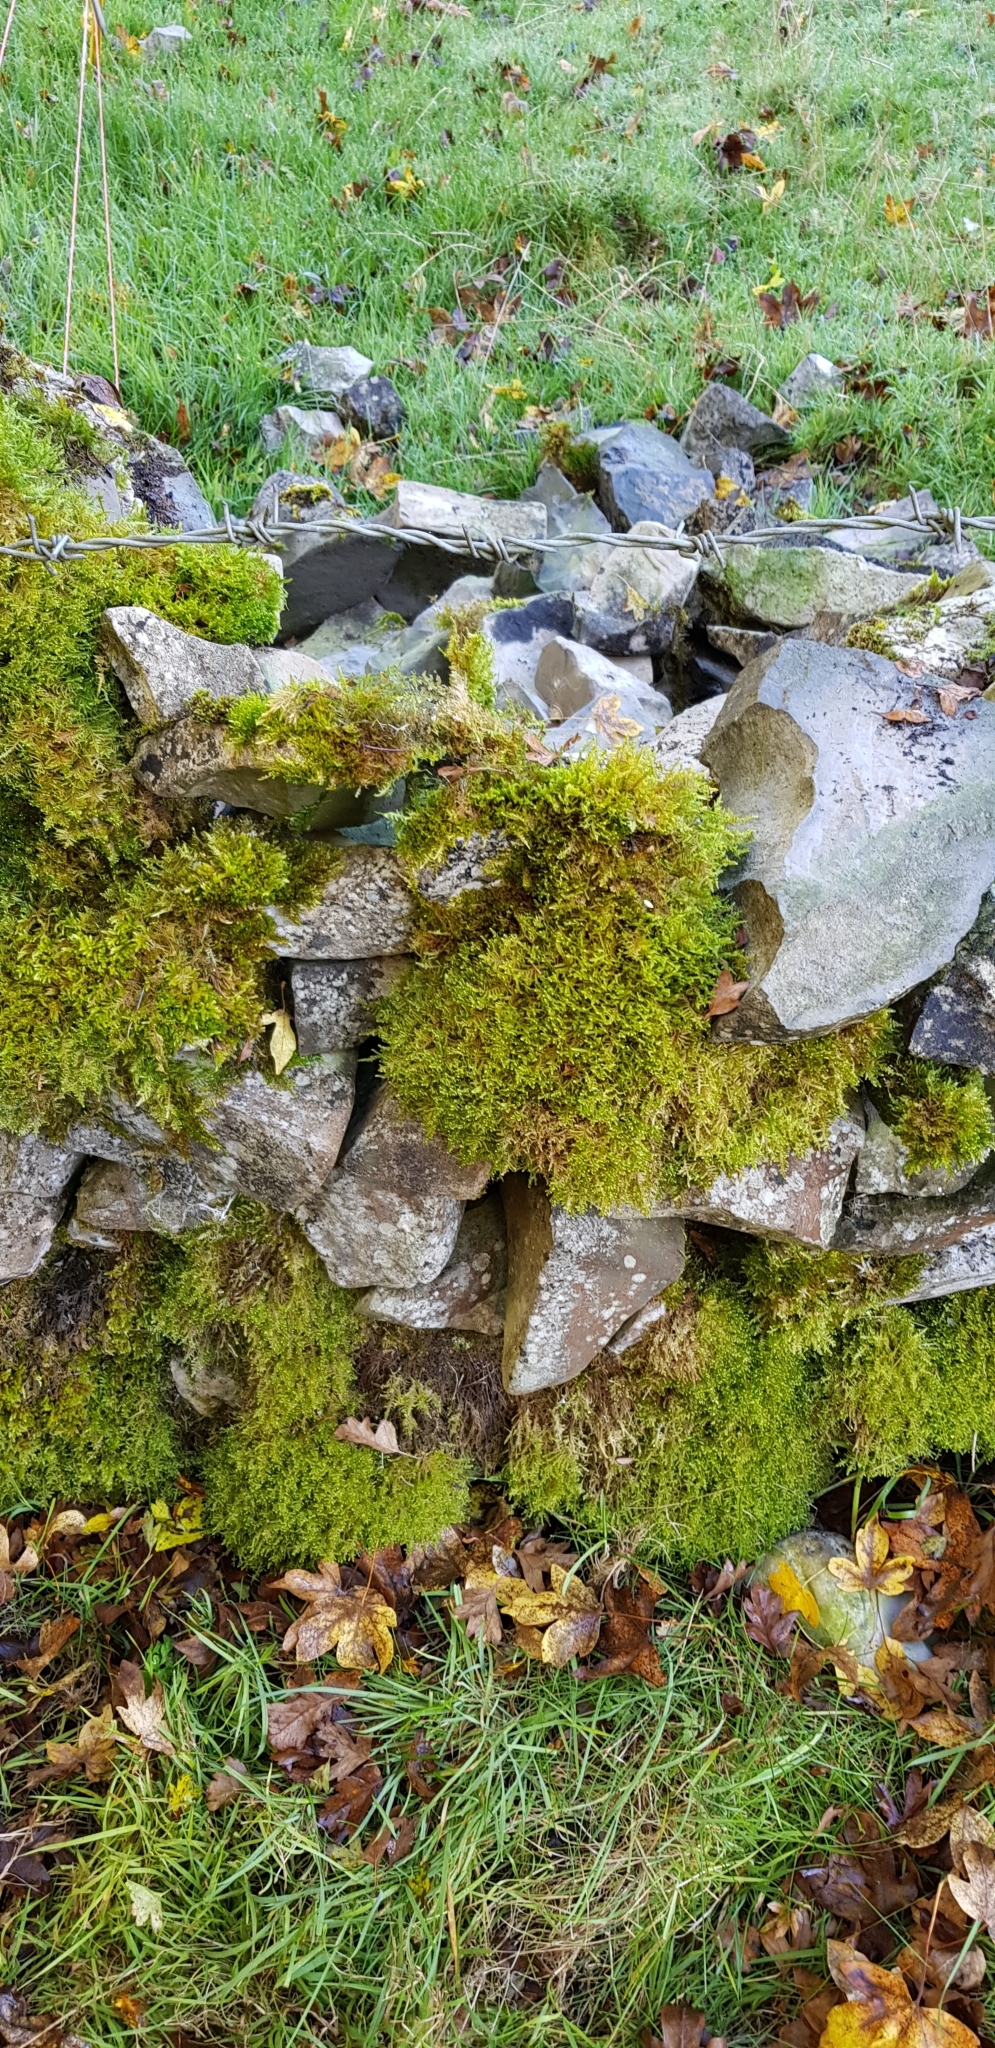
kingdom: Plantae
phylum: Bryophyta
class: Bryopsida
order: Hypnales
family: Neckeraceae
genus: Alleniella
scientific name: Alleniella complanata
